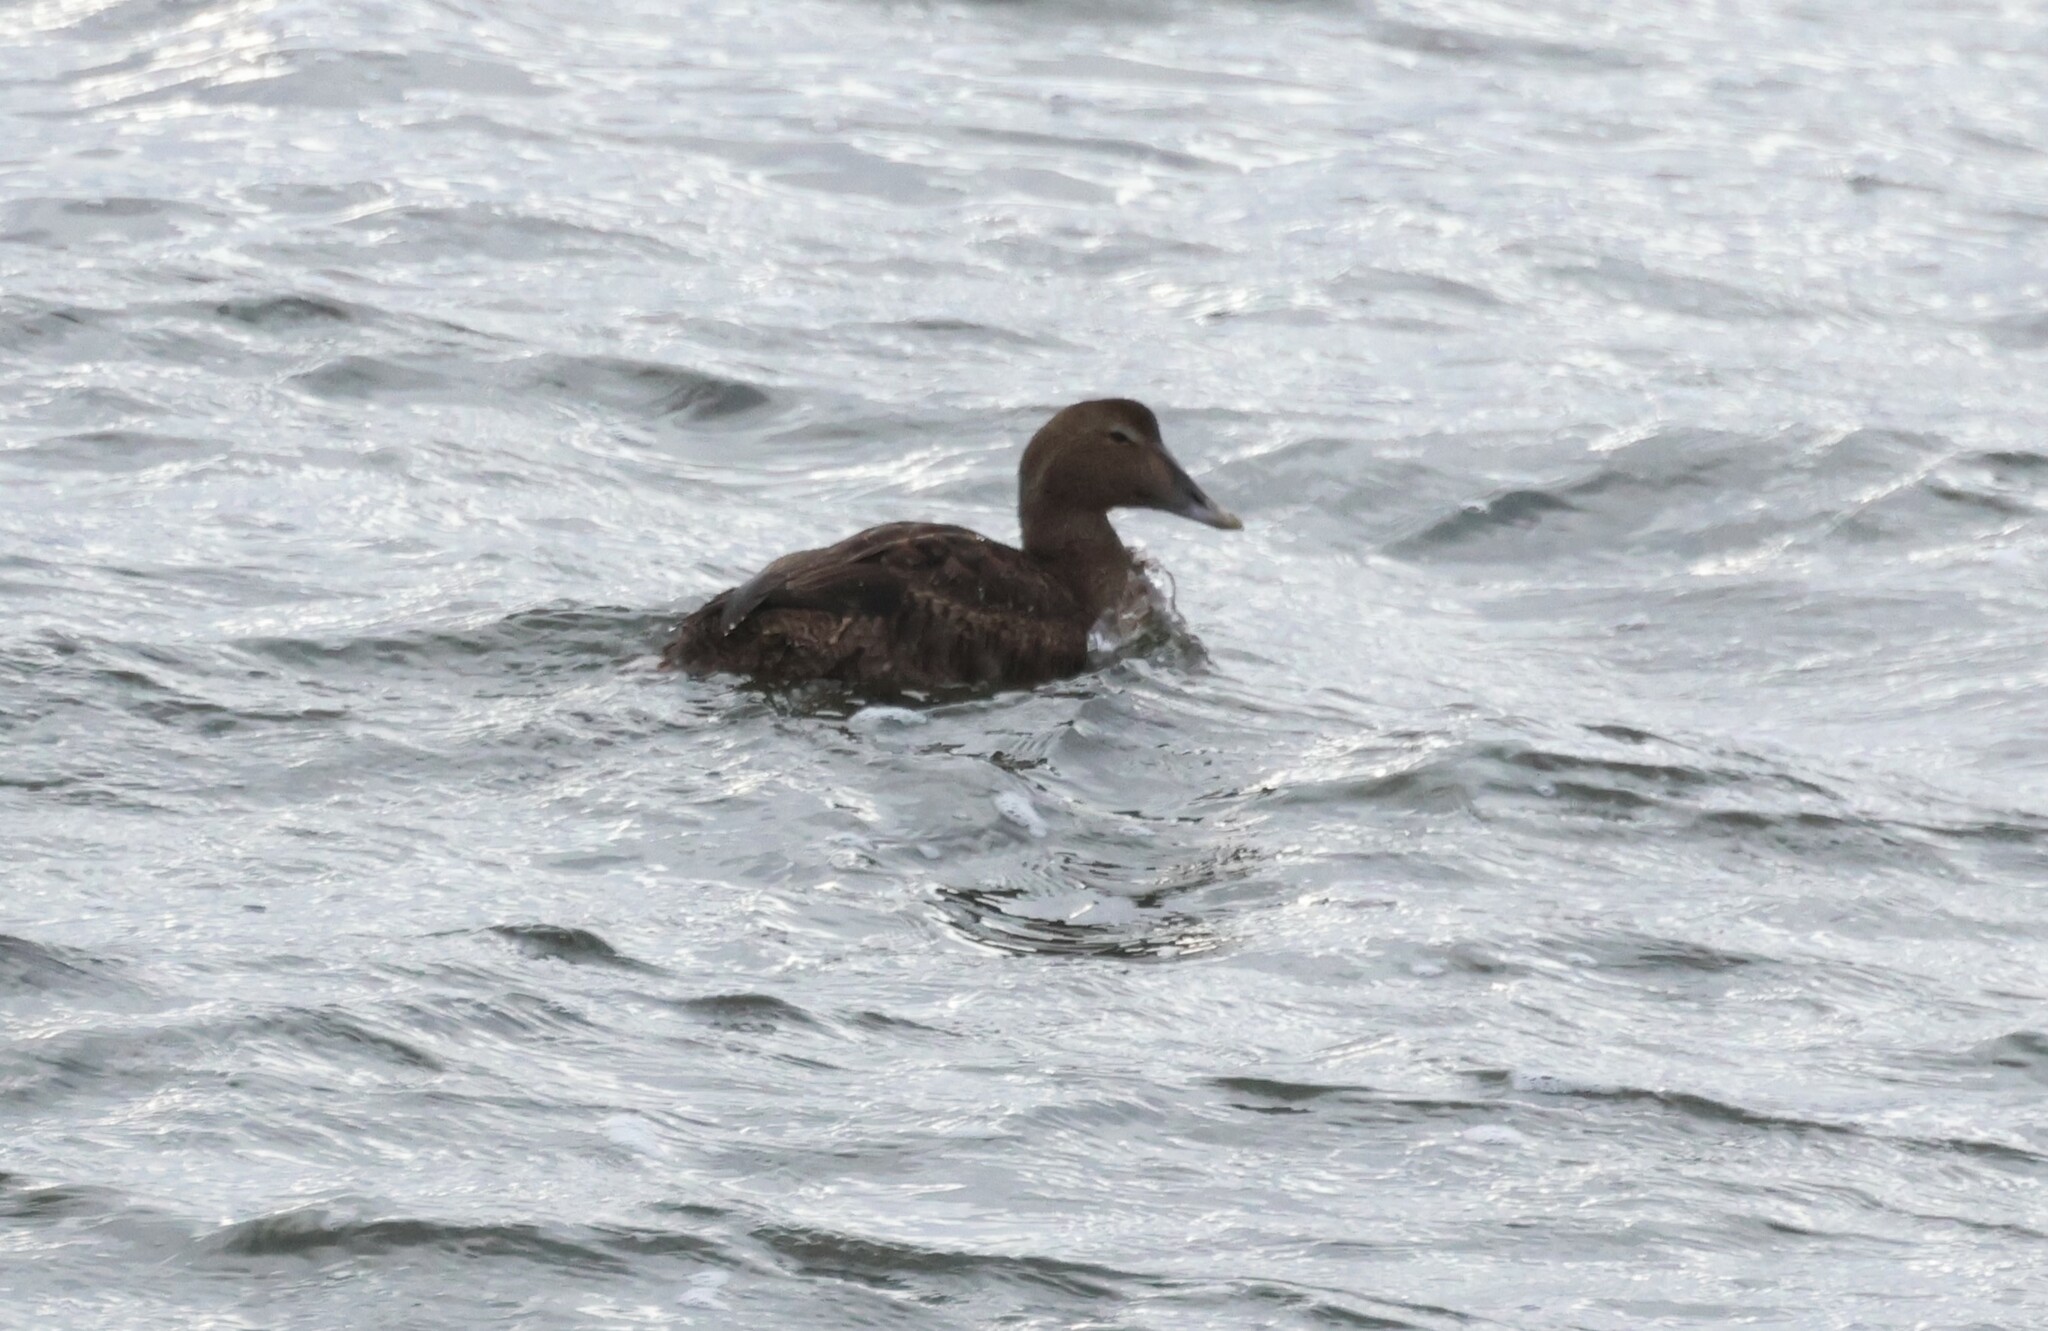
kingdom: Animalia
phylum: Chordata
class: Aves
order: Anseriformes
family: Anatidae
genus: Somateria
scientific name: Somateria mollissima
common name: Common eider
